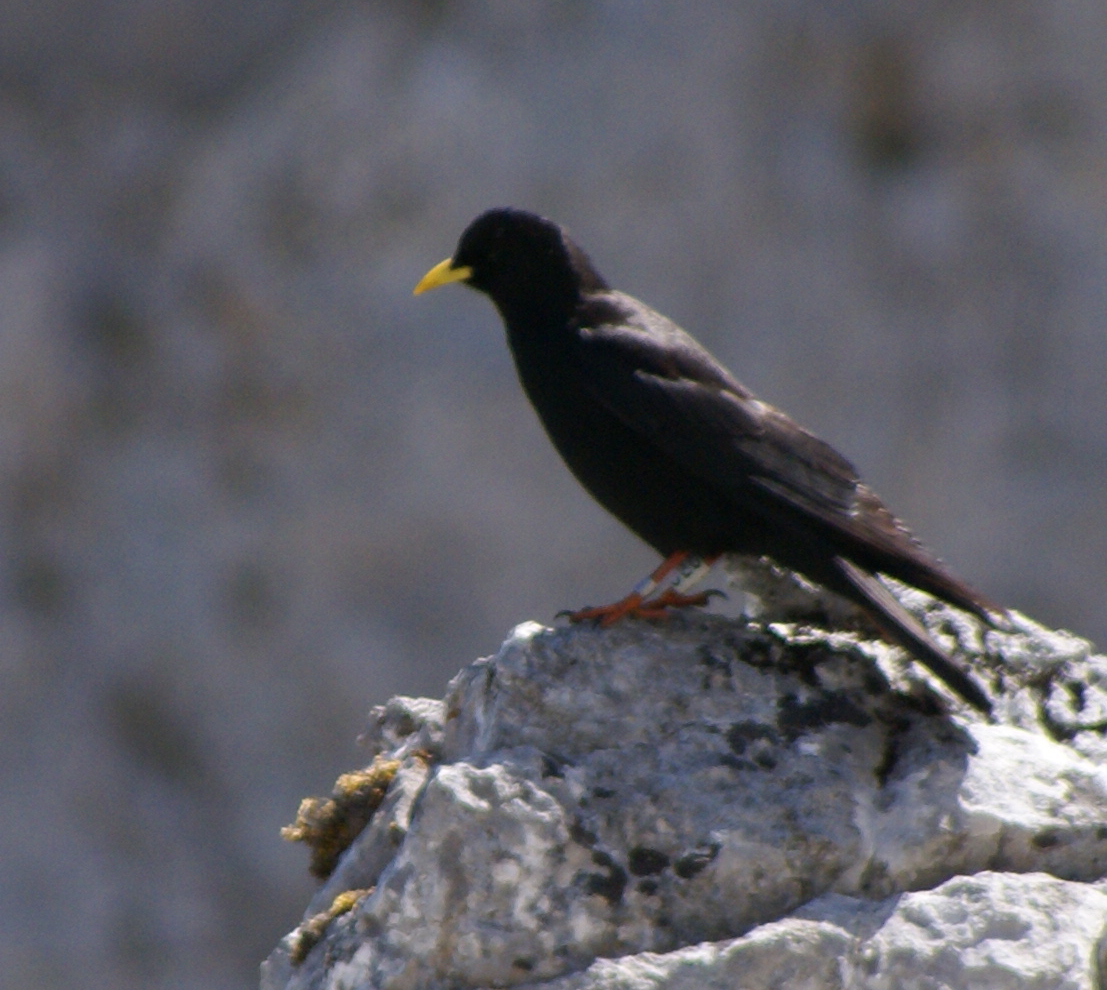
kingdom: Animalia
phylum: Chordata
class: Aves
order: Passeriformes
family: Corvidae
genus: Pyrrhocorax
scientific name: Pyrrhocorax graculus
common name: Alpine chough
